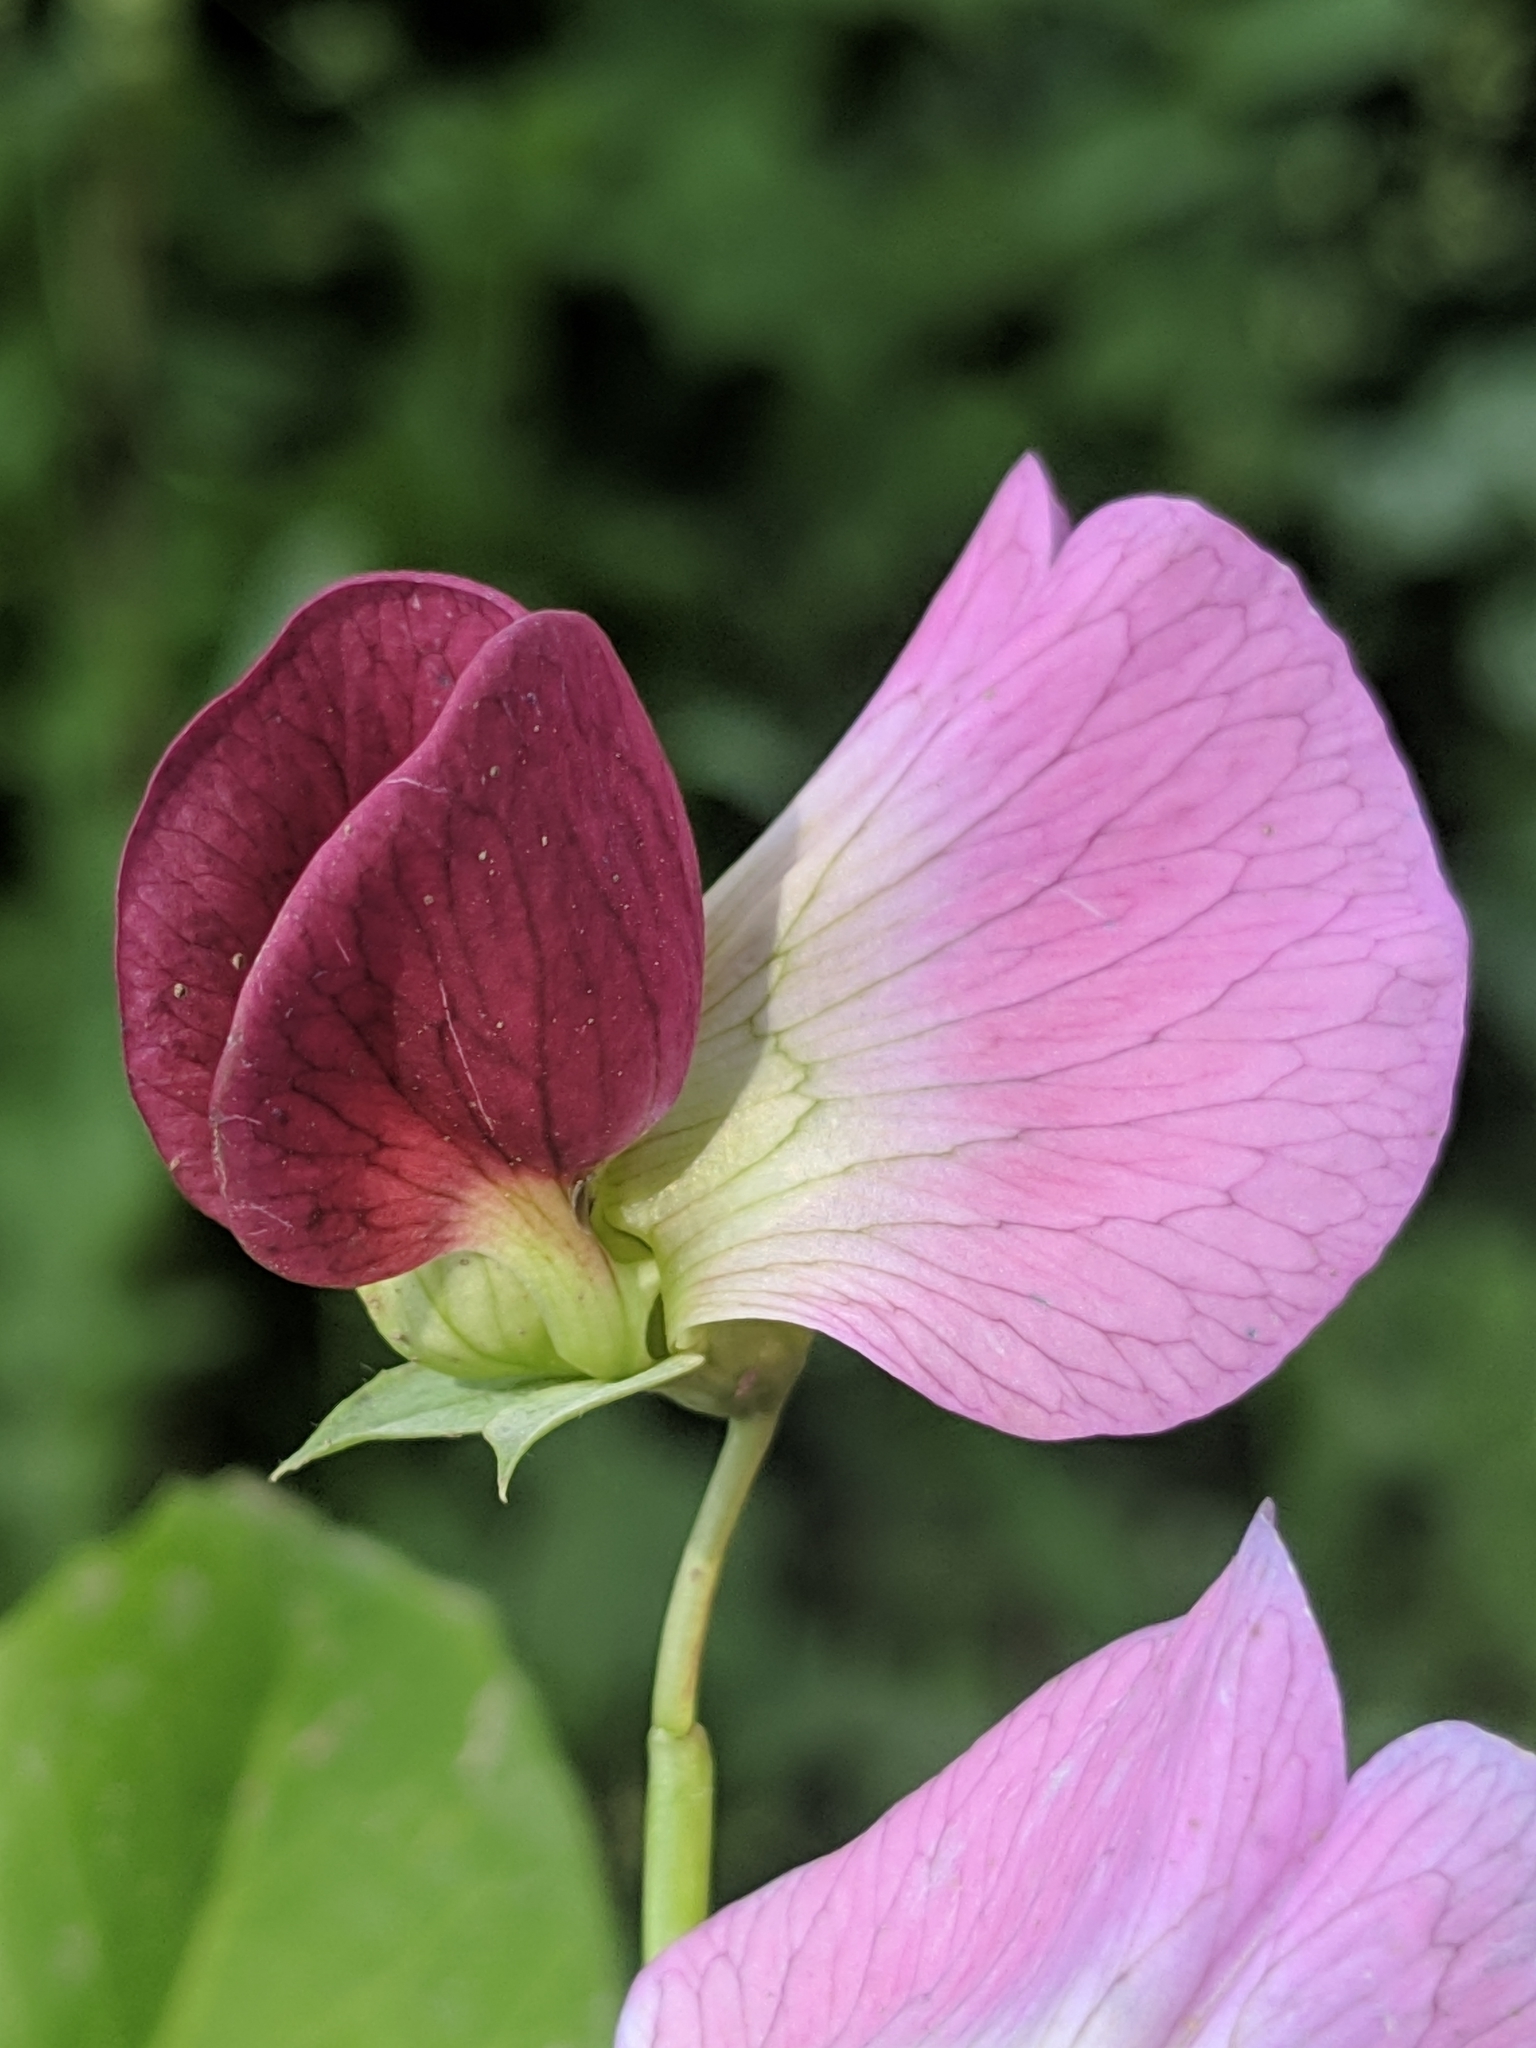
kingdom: Plantae
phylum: Tracheophyta
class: Magnoliopsida
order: Fabales
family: Fabaceae
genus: Lathyrus
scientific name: Lathyrus oleraceus
